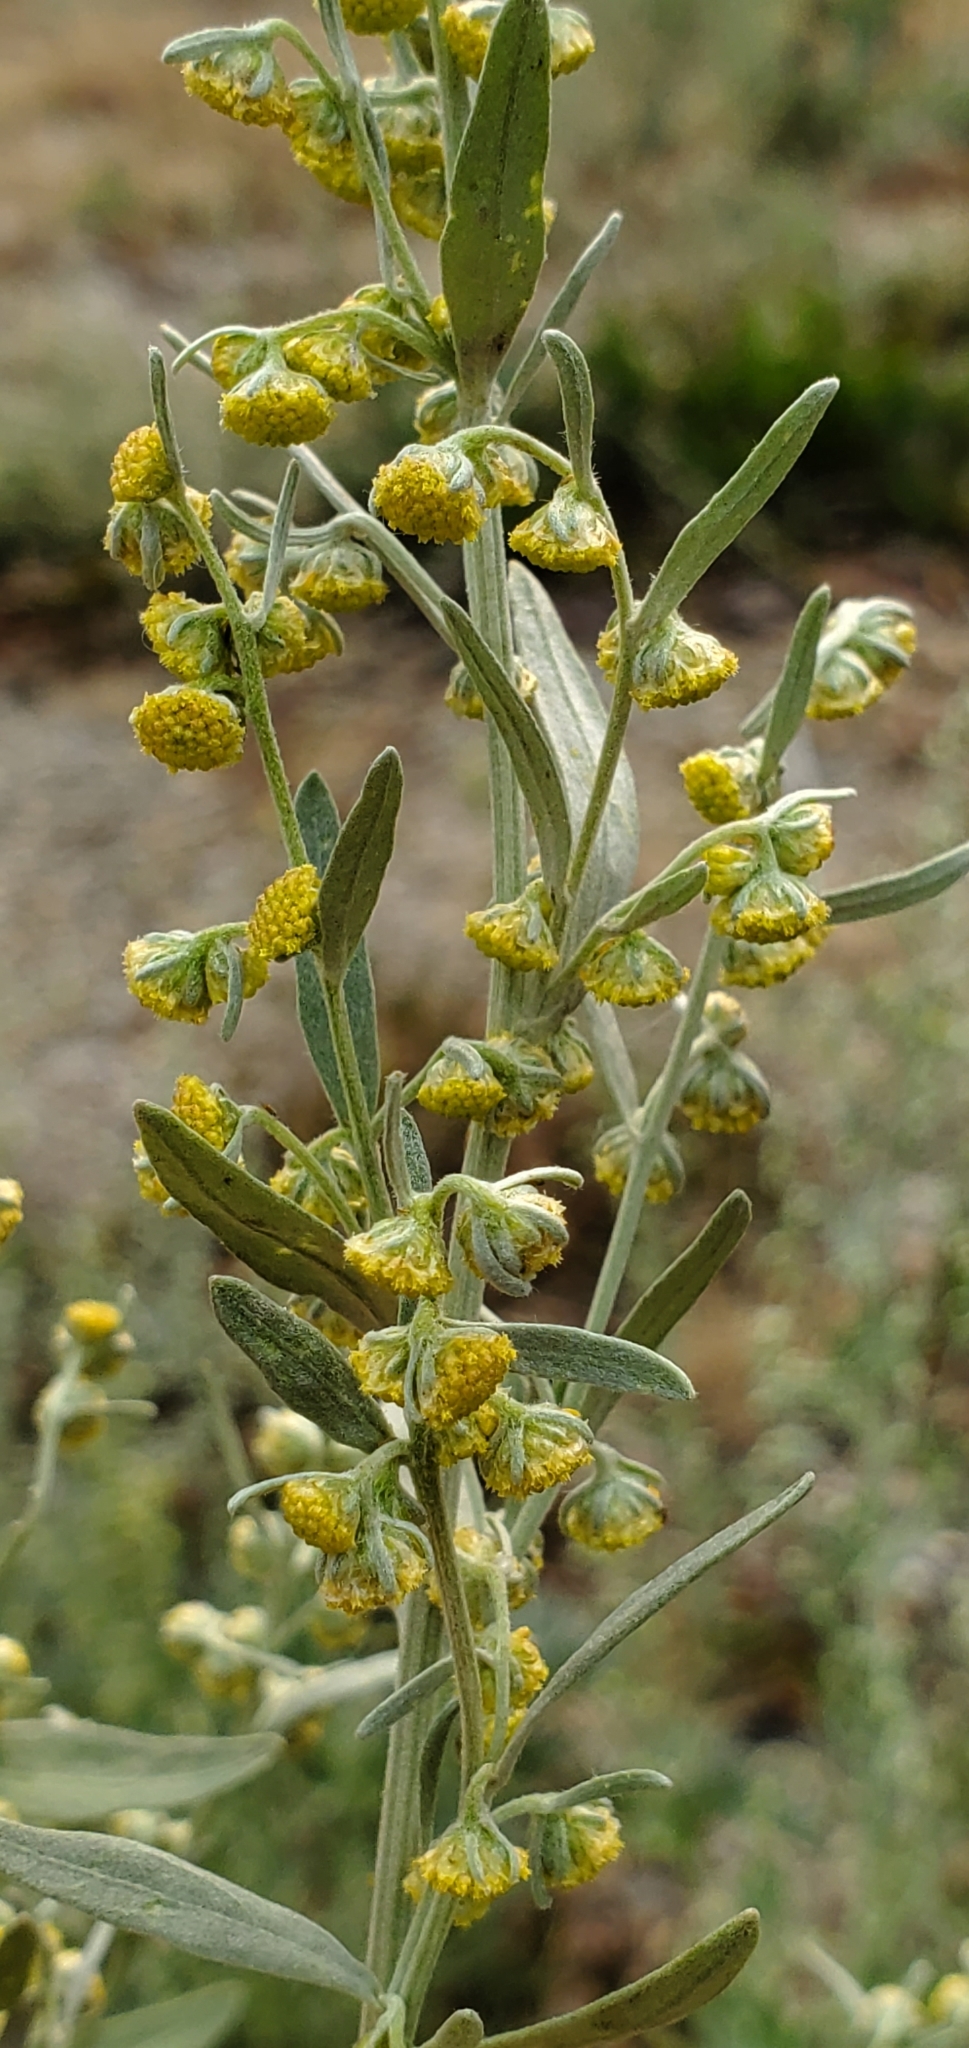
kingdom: Plantae
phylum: Tracheophyta
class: Magnoliopsida
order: Asterales
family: Asteraceae
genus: Artemisia
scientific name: Artemisia absinthium
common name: Wormwood
